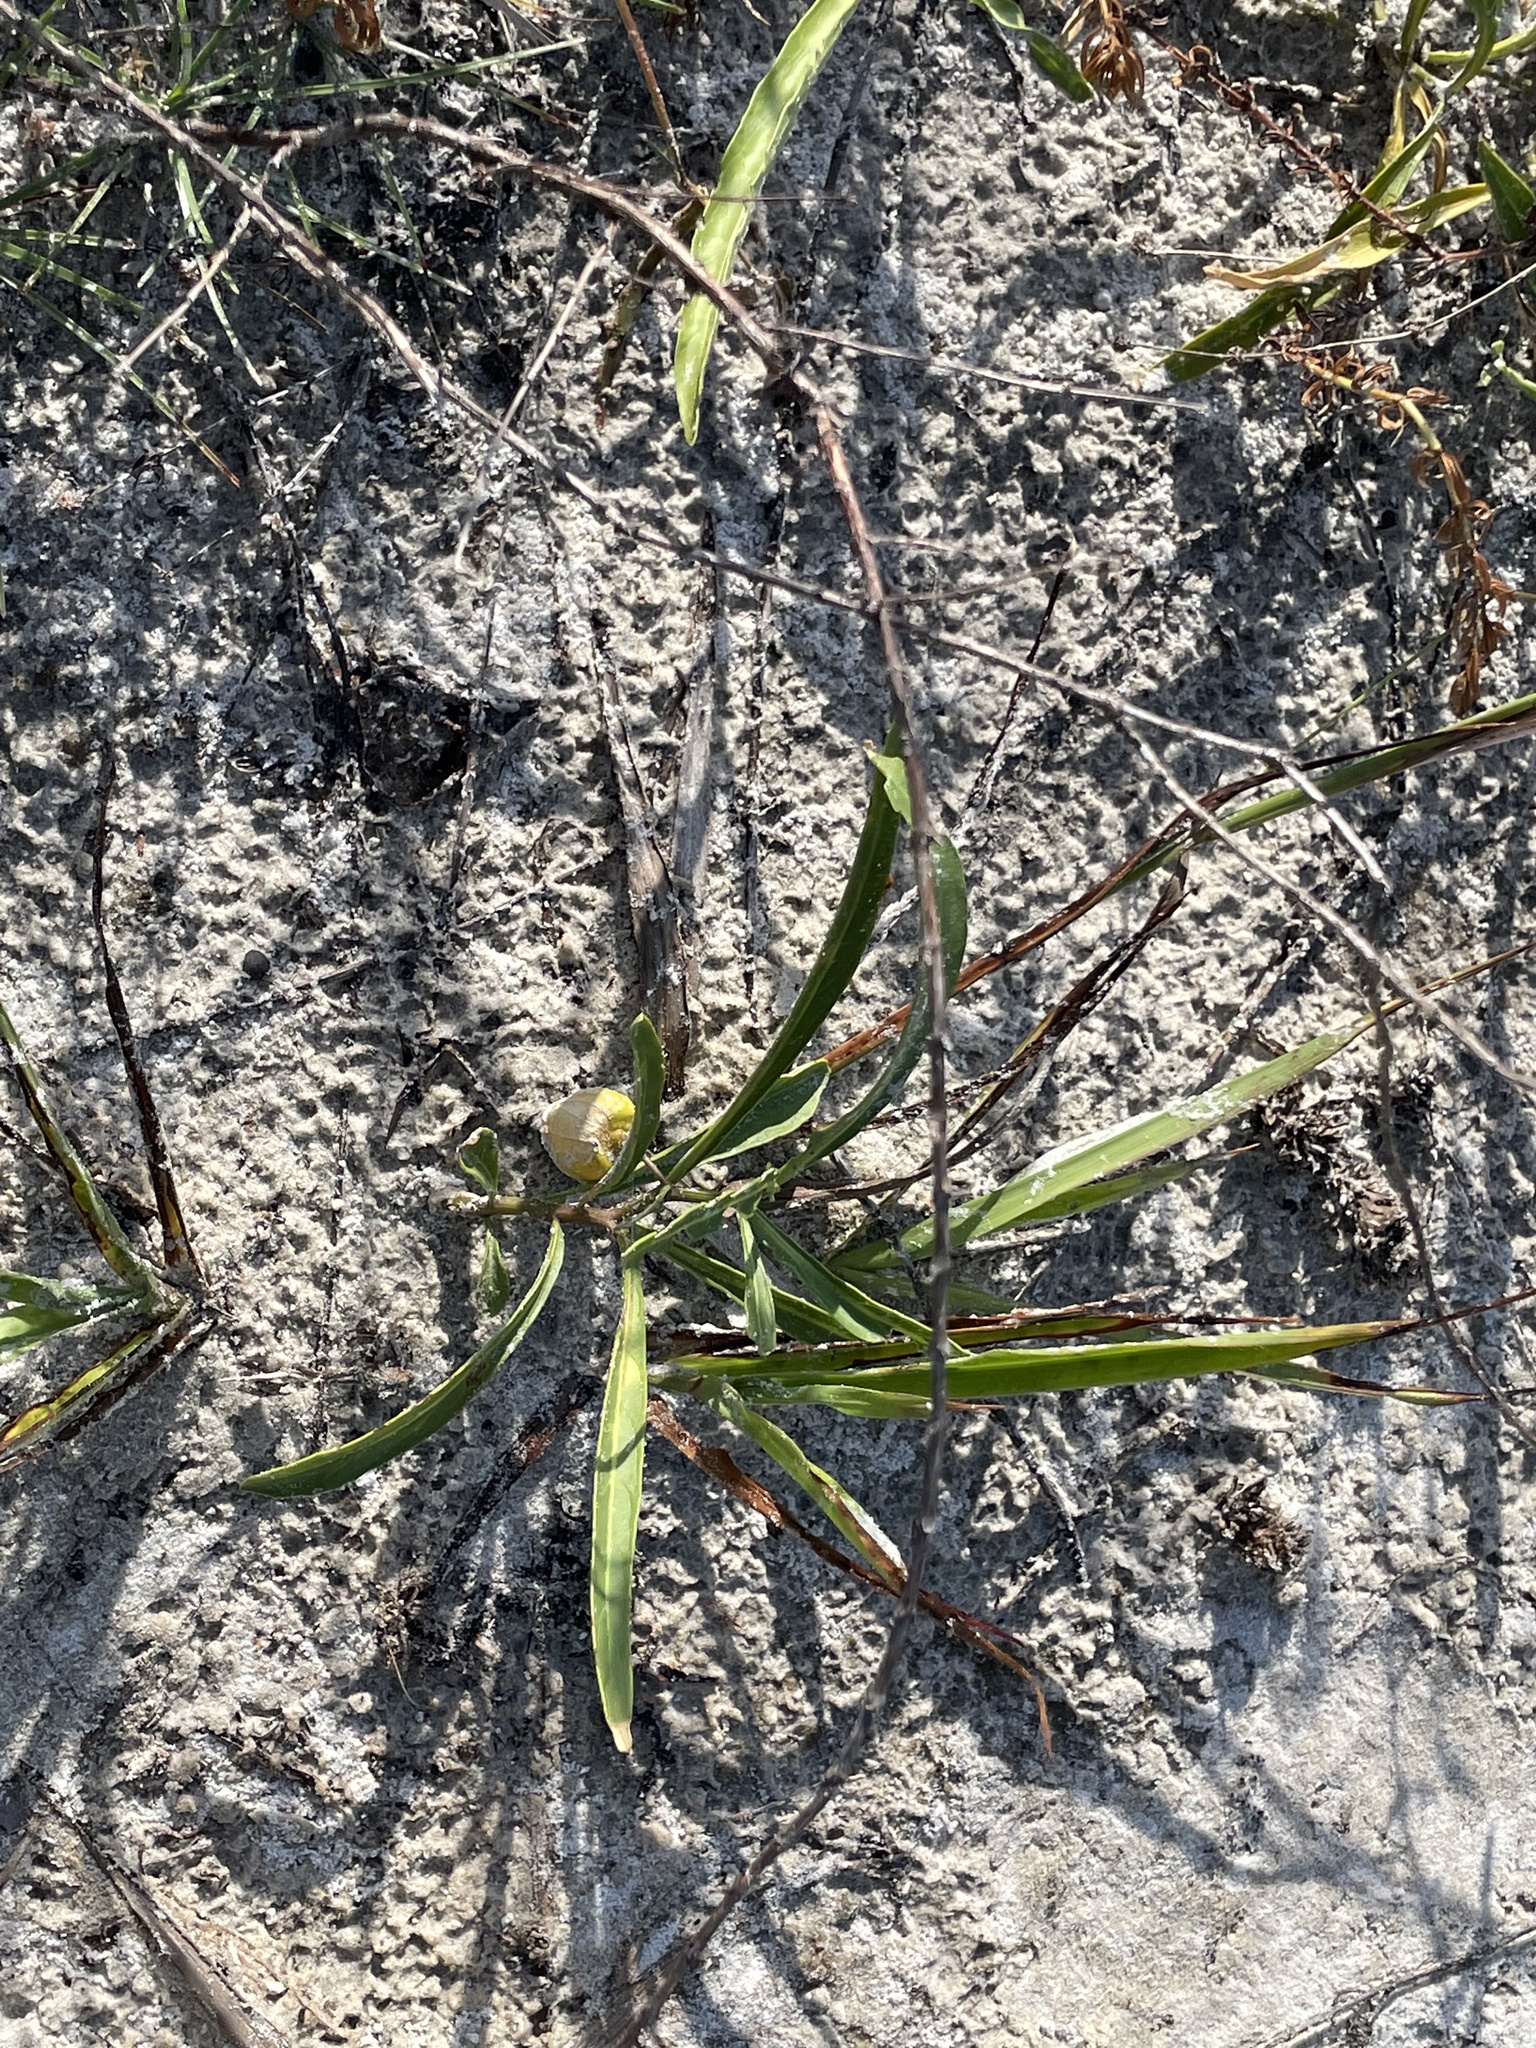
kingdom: Plantae
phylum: Tracheophyta
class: Magnoliopsida
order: Solanales
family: Solanaceae
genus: Physalis
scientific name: Physalis elliottii
